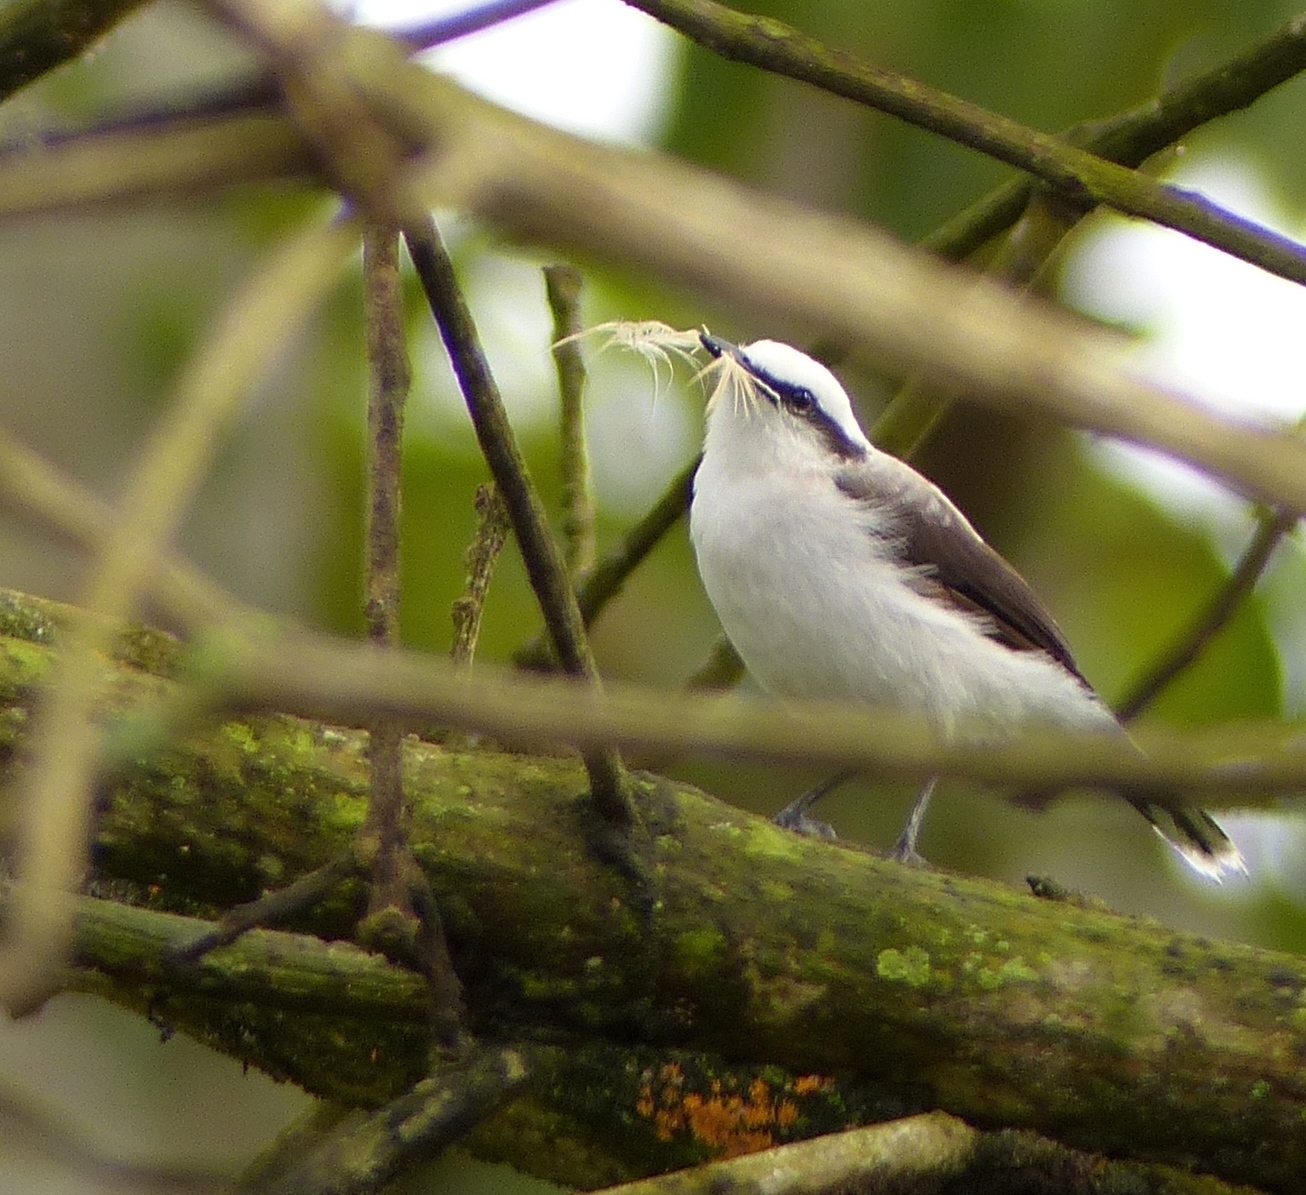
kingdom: Animalia
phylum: Chordata
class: Aves
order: Passeriformes
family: Tyrannidae
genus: Fluvicola
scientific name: Fluvicola nengeta
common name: Masked water tyrant
